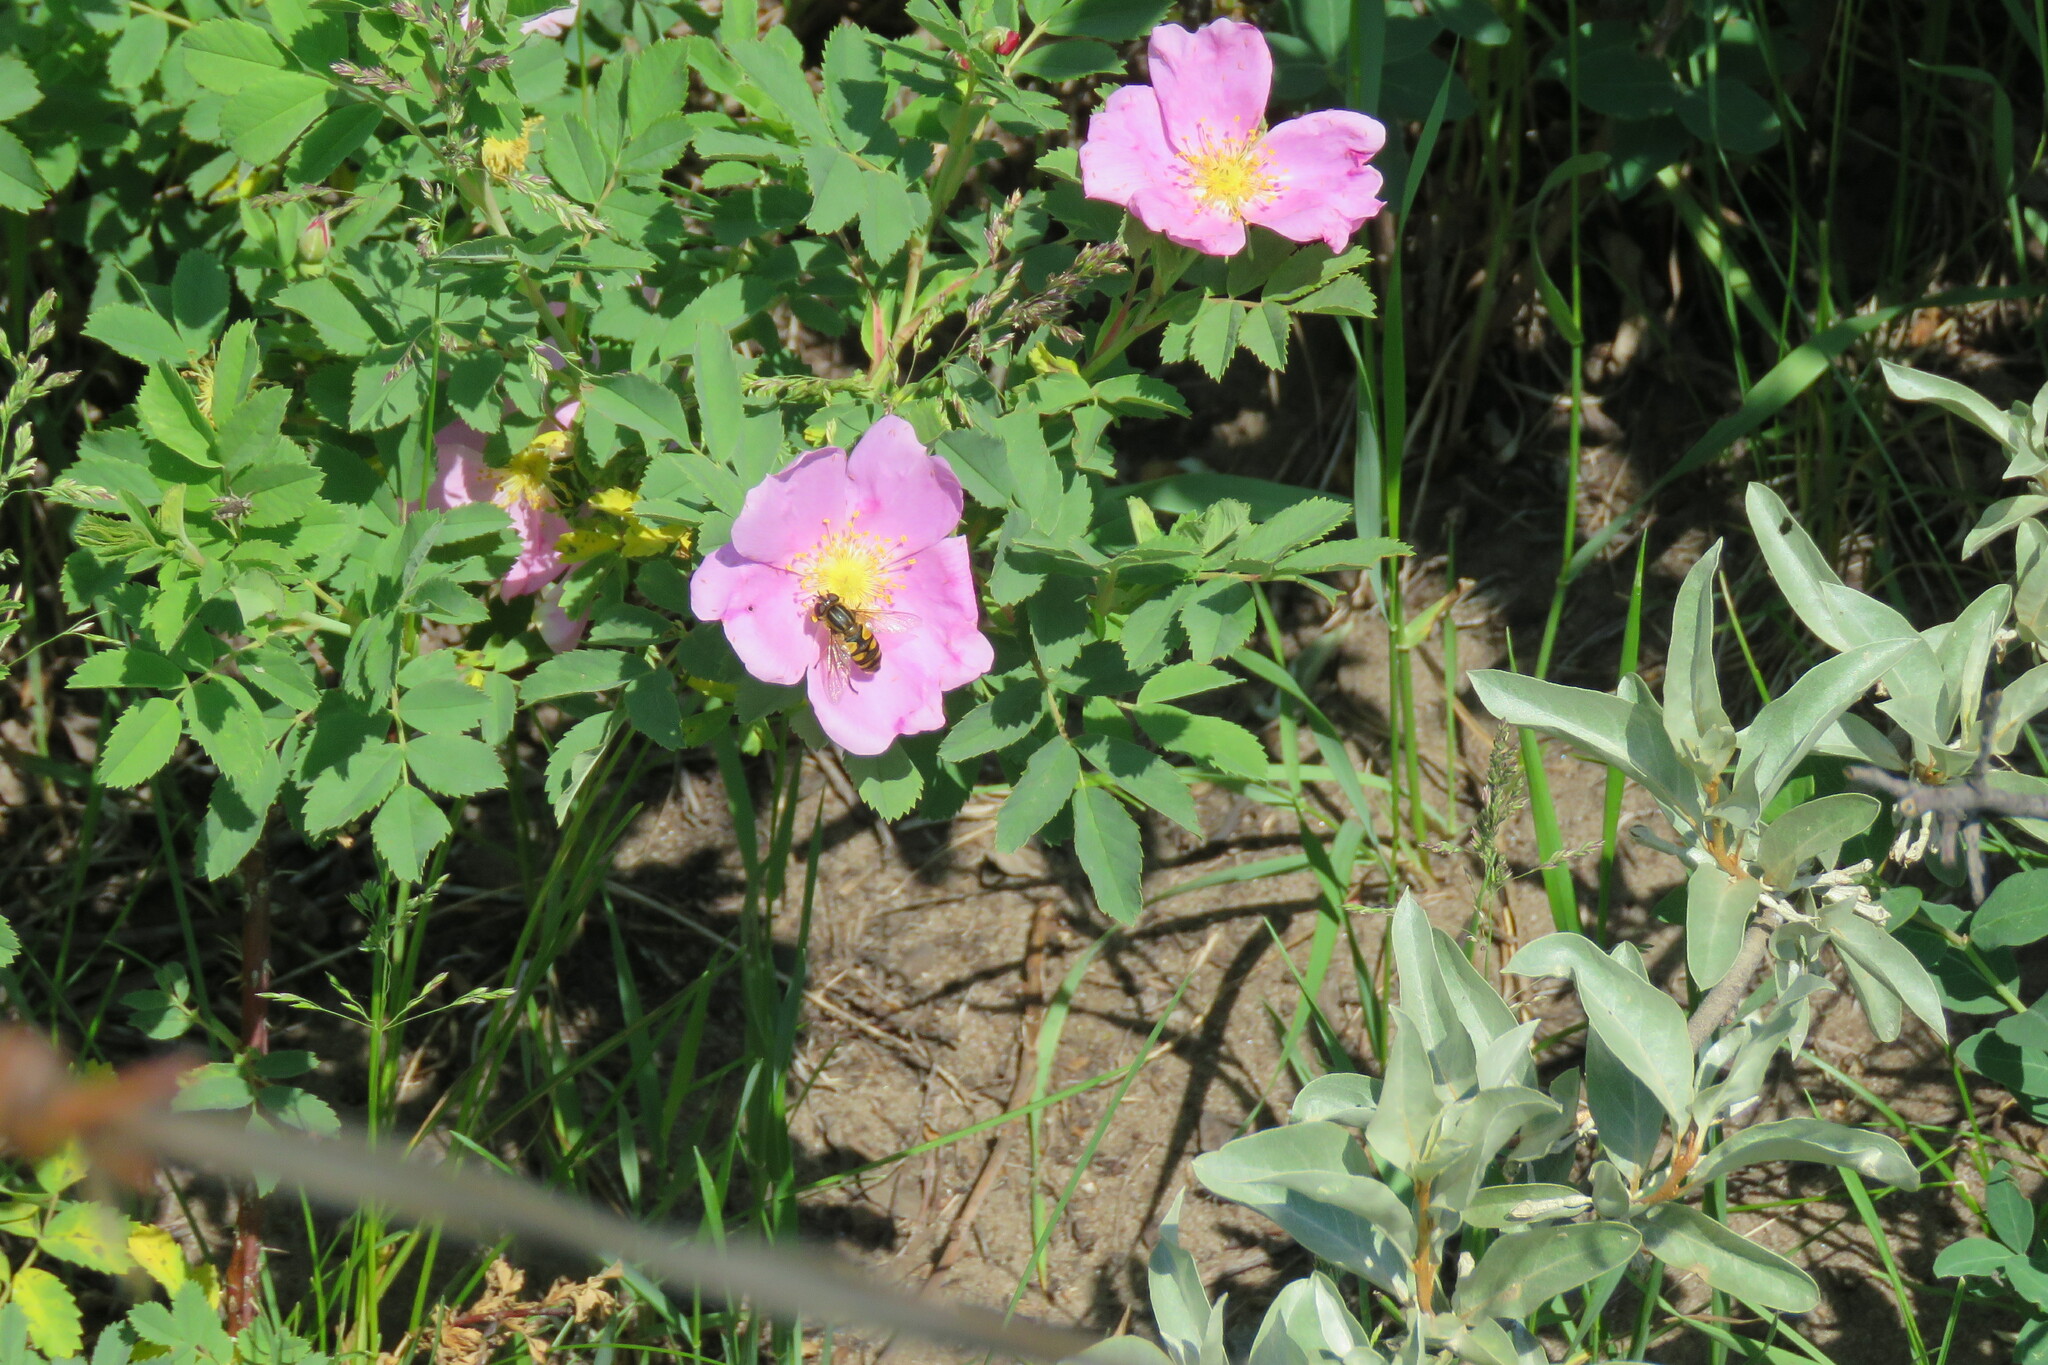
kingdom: Animalia
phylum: Arthropoda
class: Insecta
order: Diptera
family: Syrphidae
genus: Helophilus
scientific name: Helophilus hybridus
